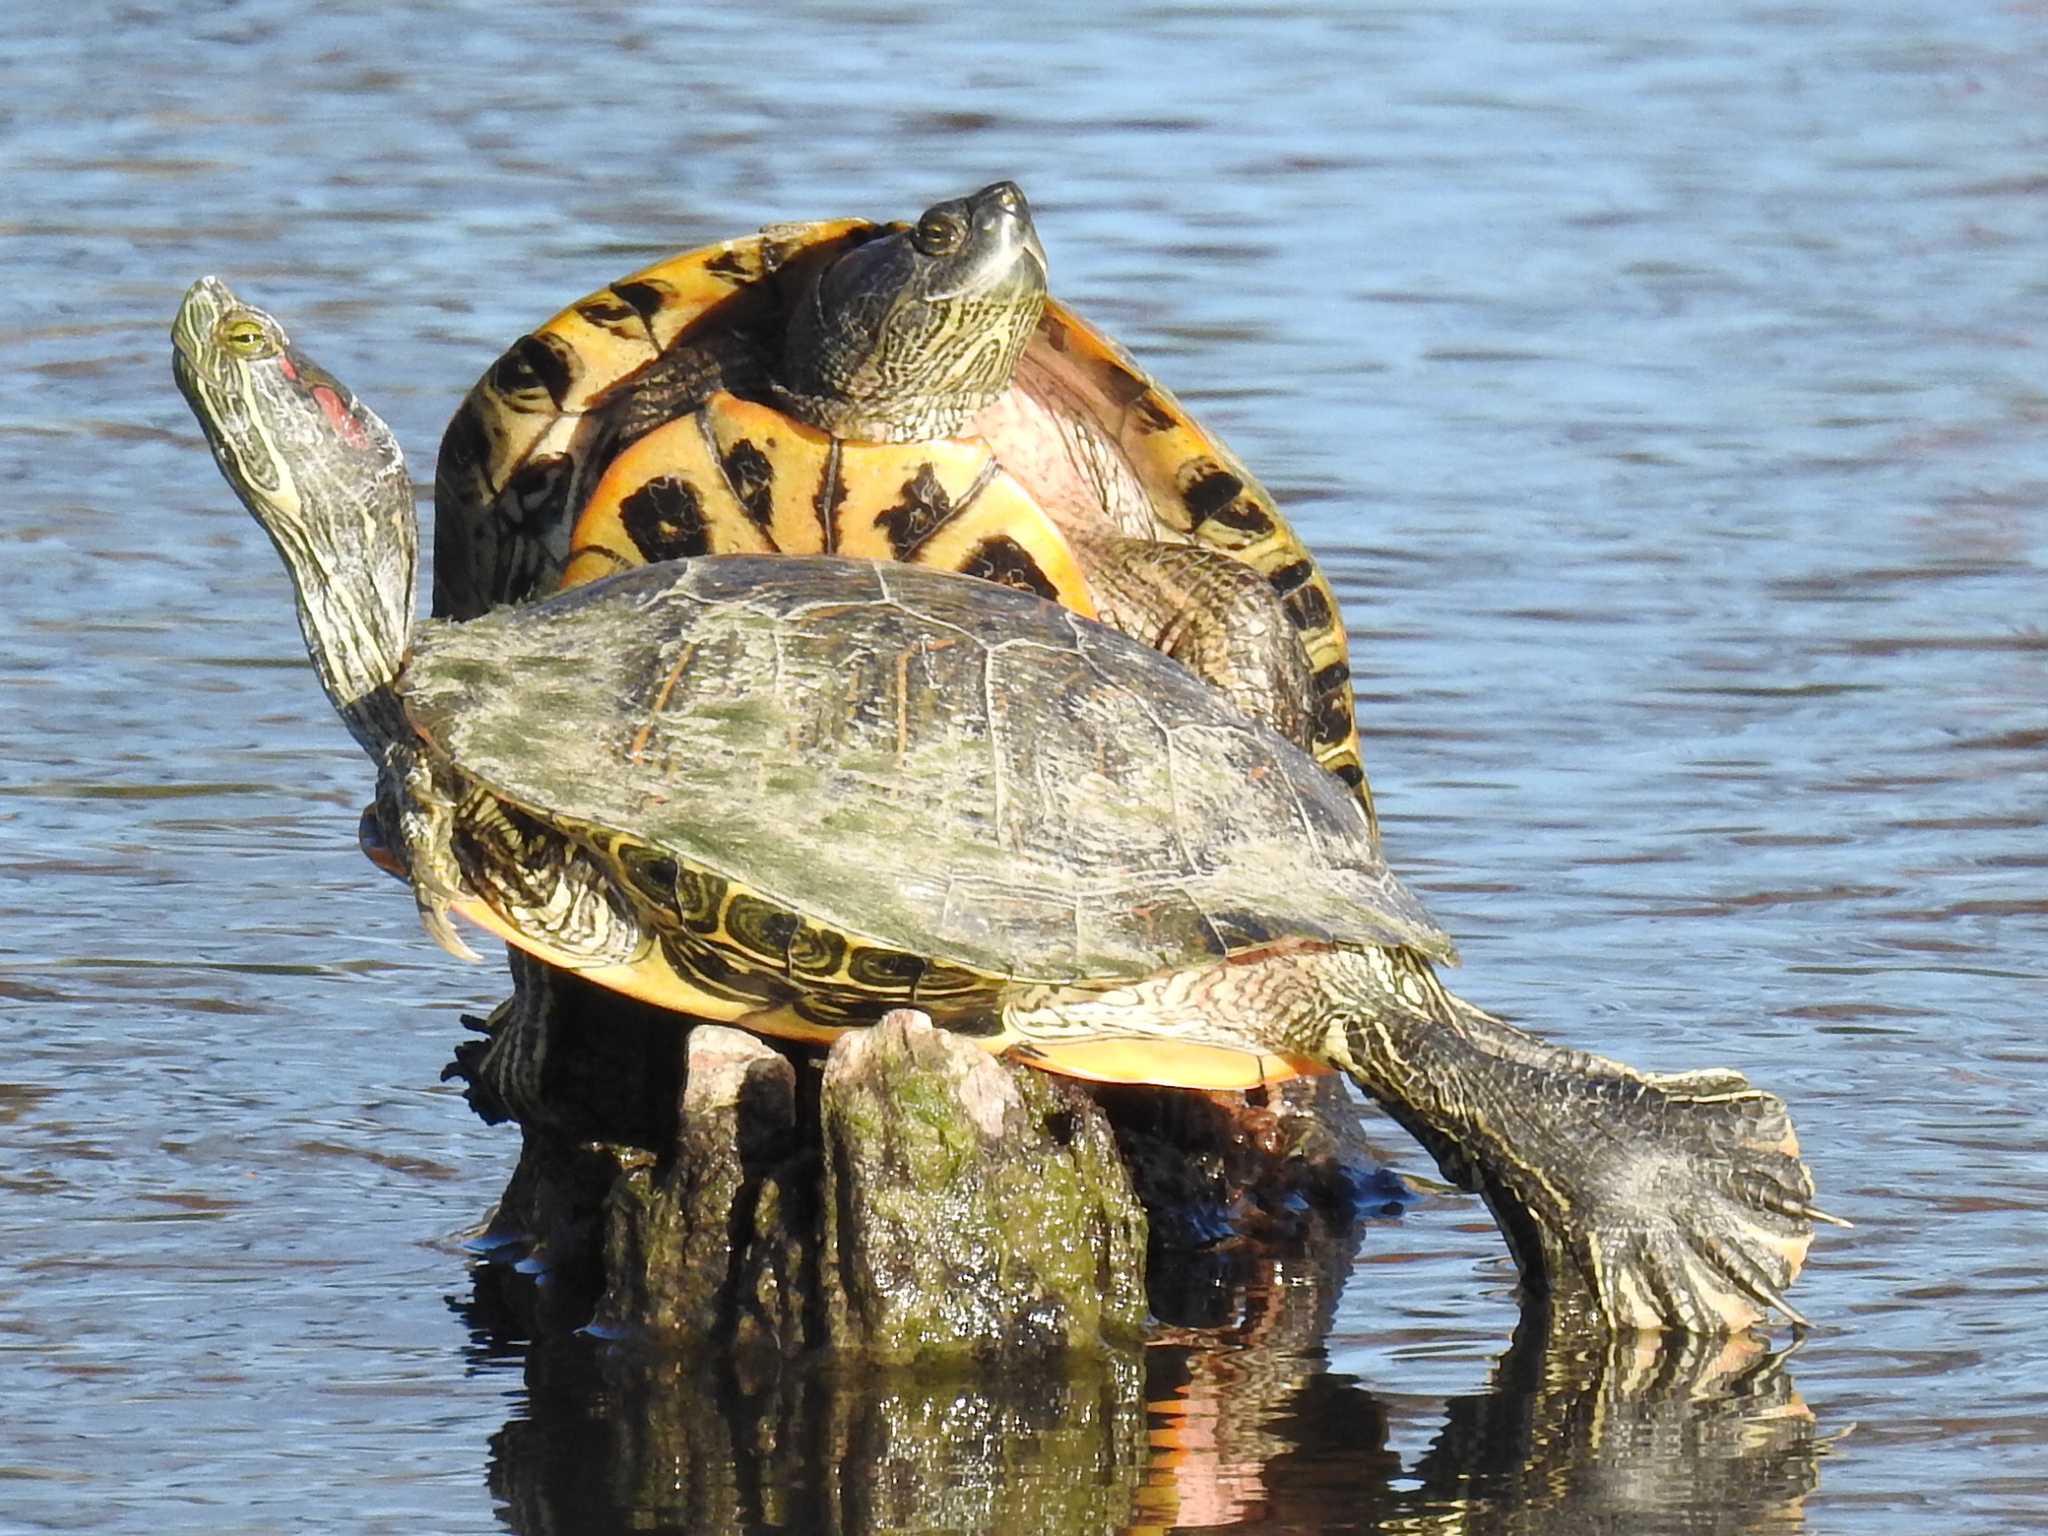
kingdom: Animalia
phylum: Chordata
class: Testudines
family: Emydidae
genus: Trachemys
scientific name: Trachemys scripta
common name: Slider
